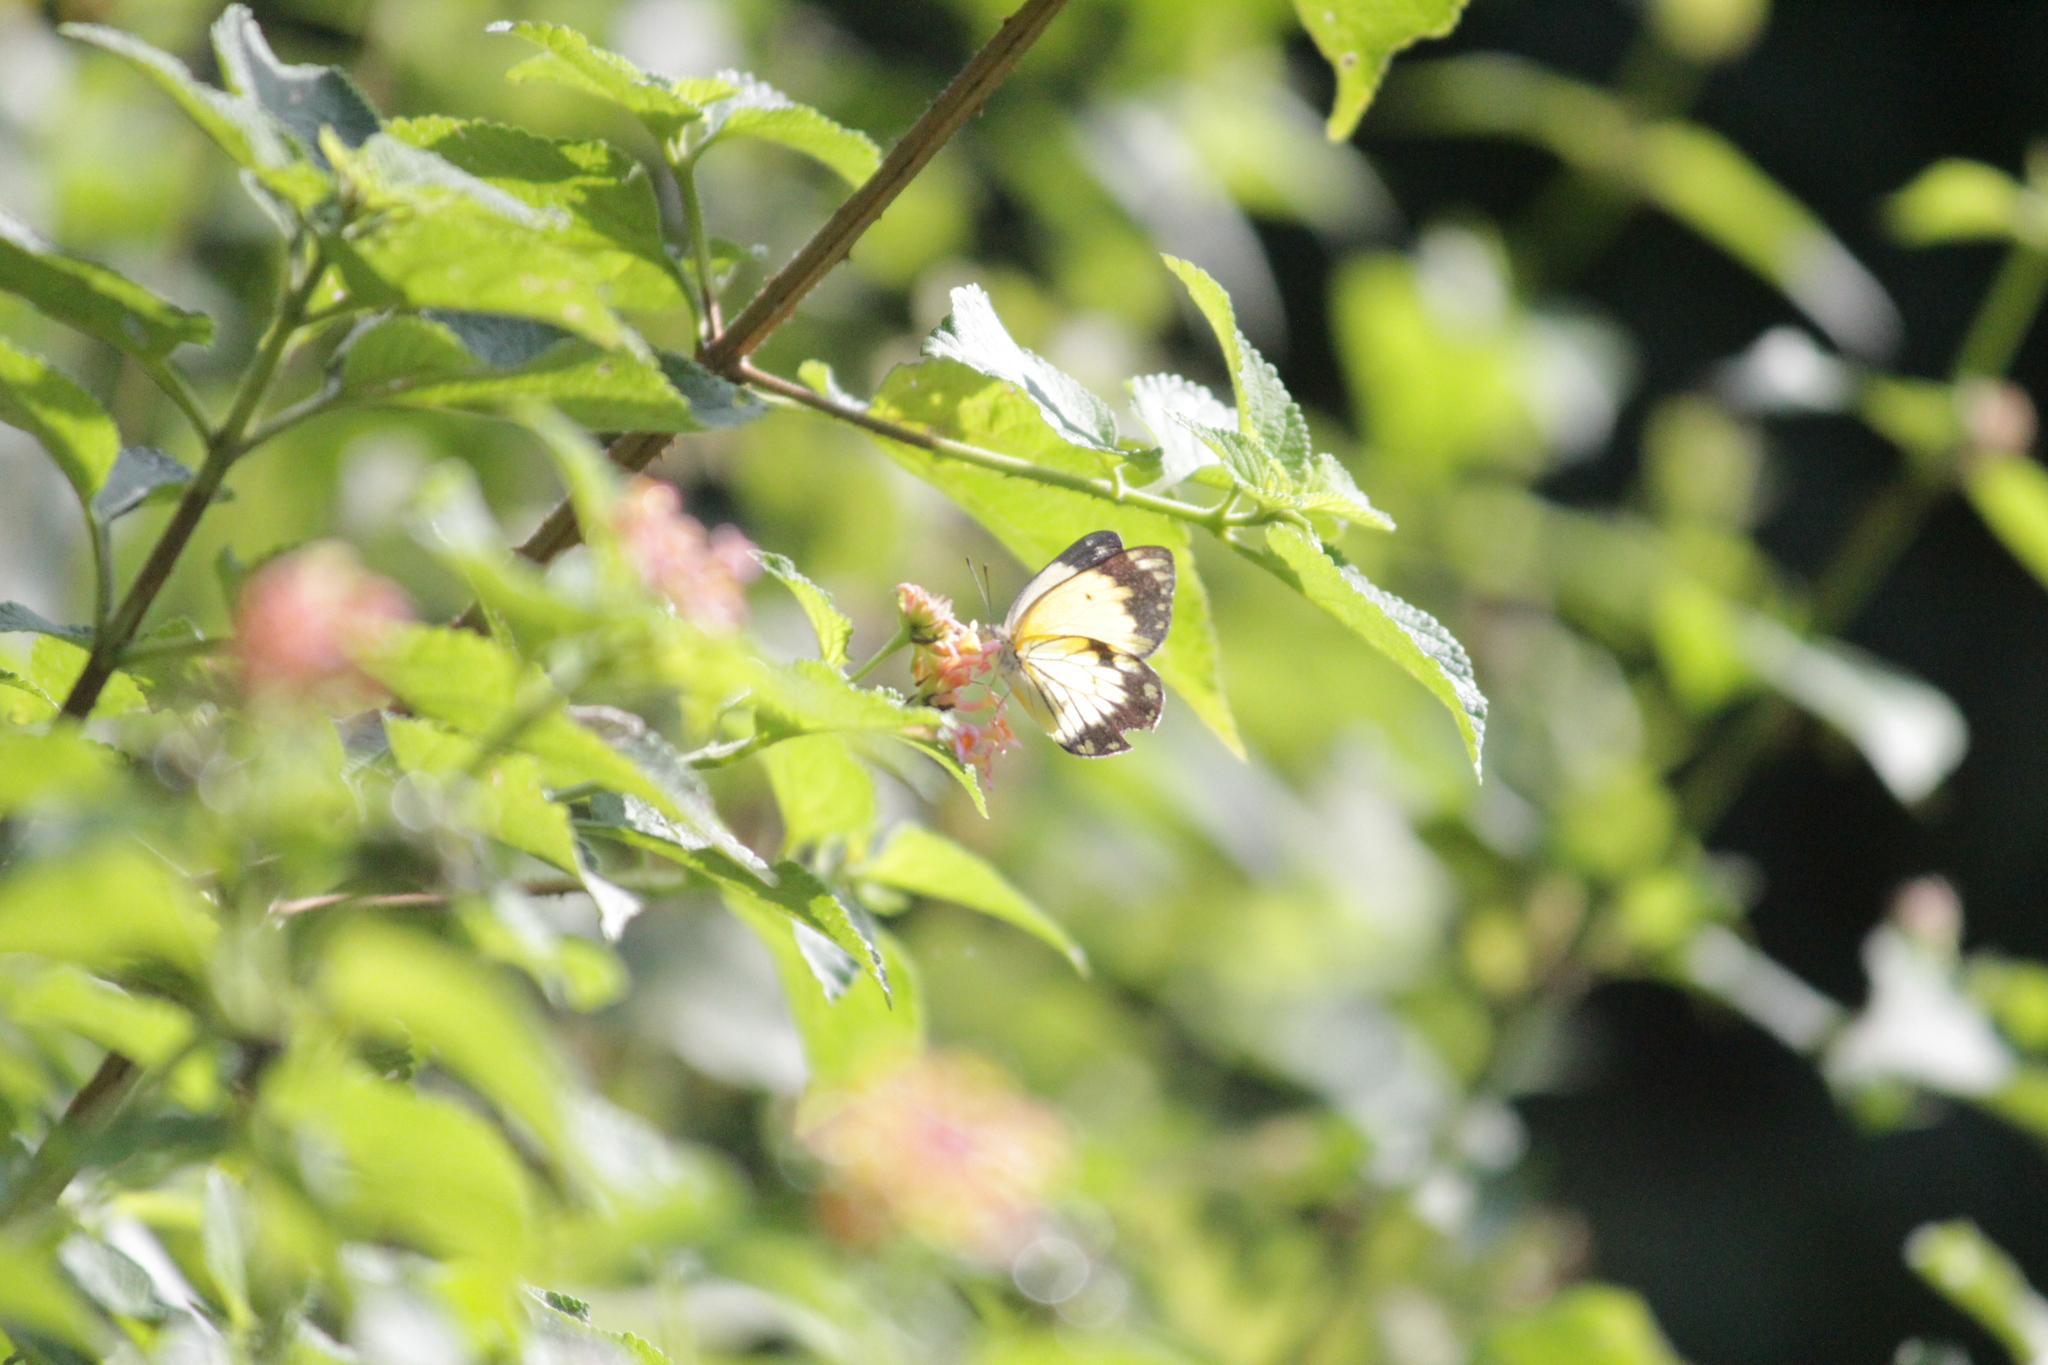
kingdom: Animalia
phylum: Arthropoda
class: Insecta
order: Lepidoptera
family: Pieridae
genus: Belenois
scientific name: Belenois creona
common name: African caper white
